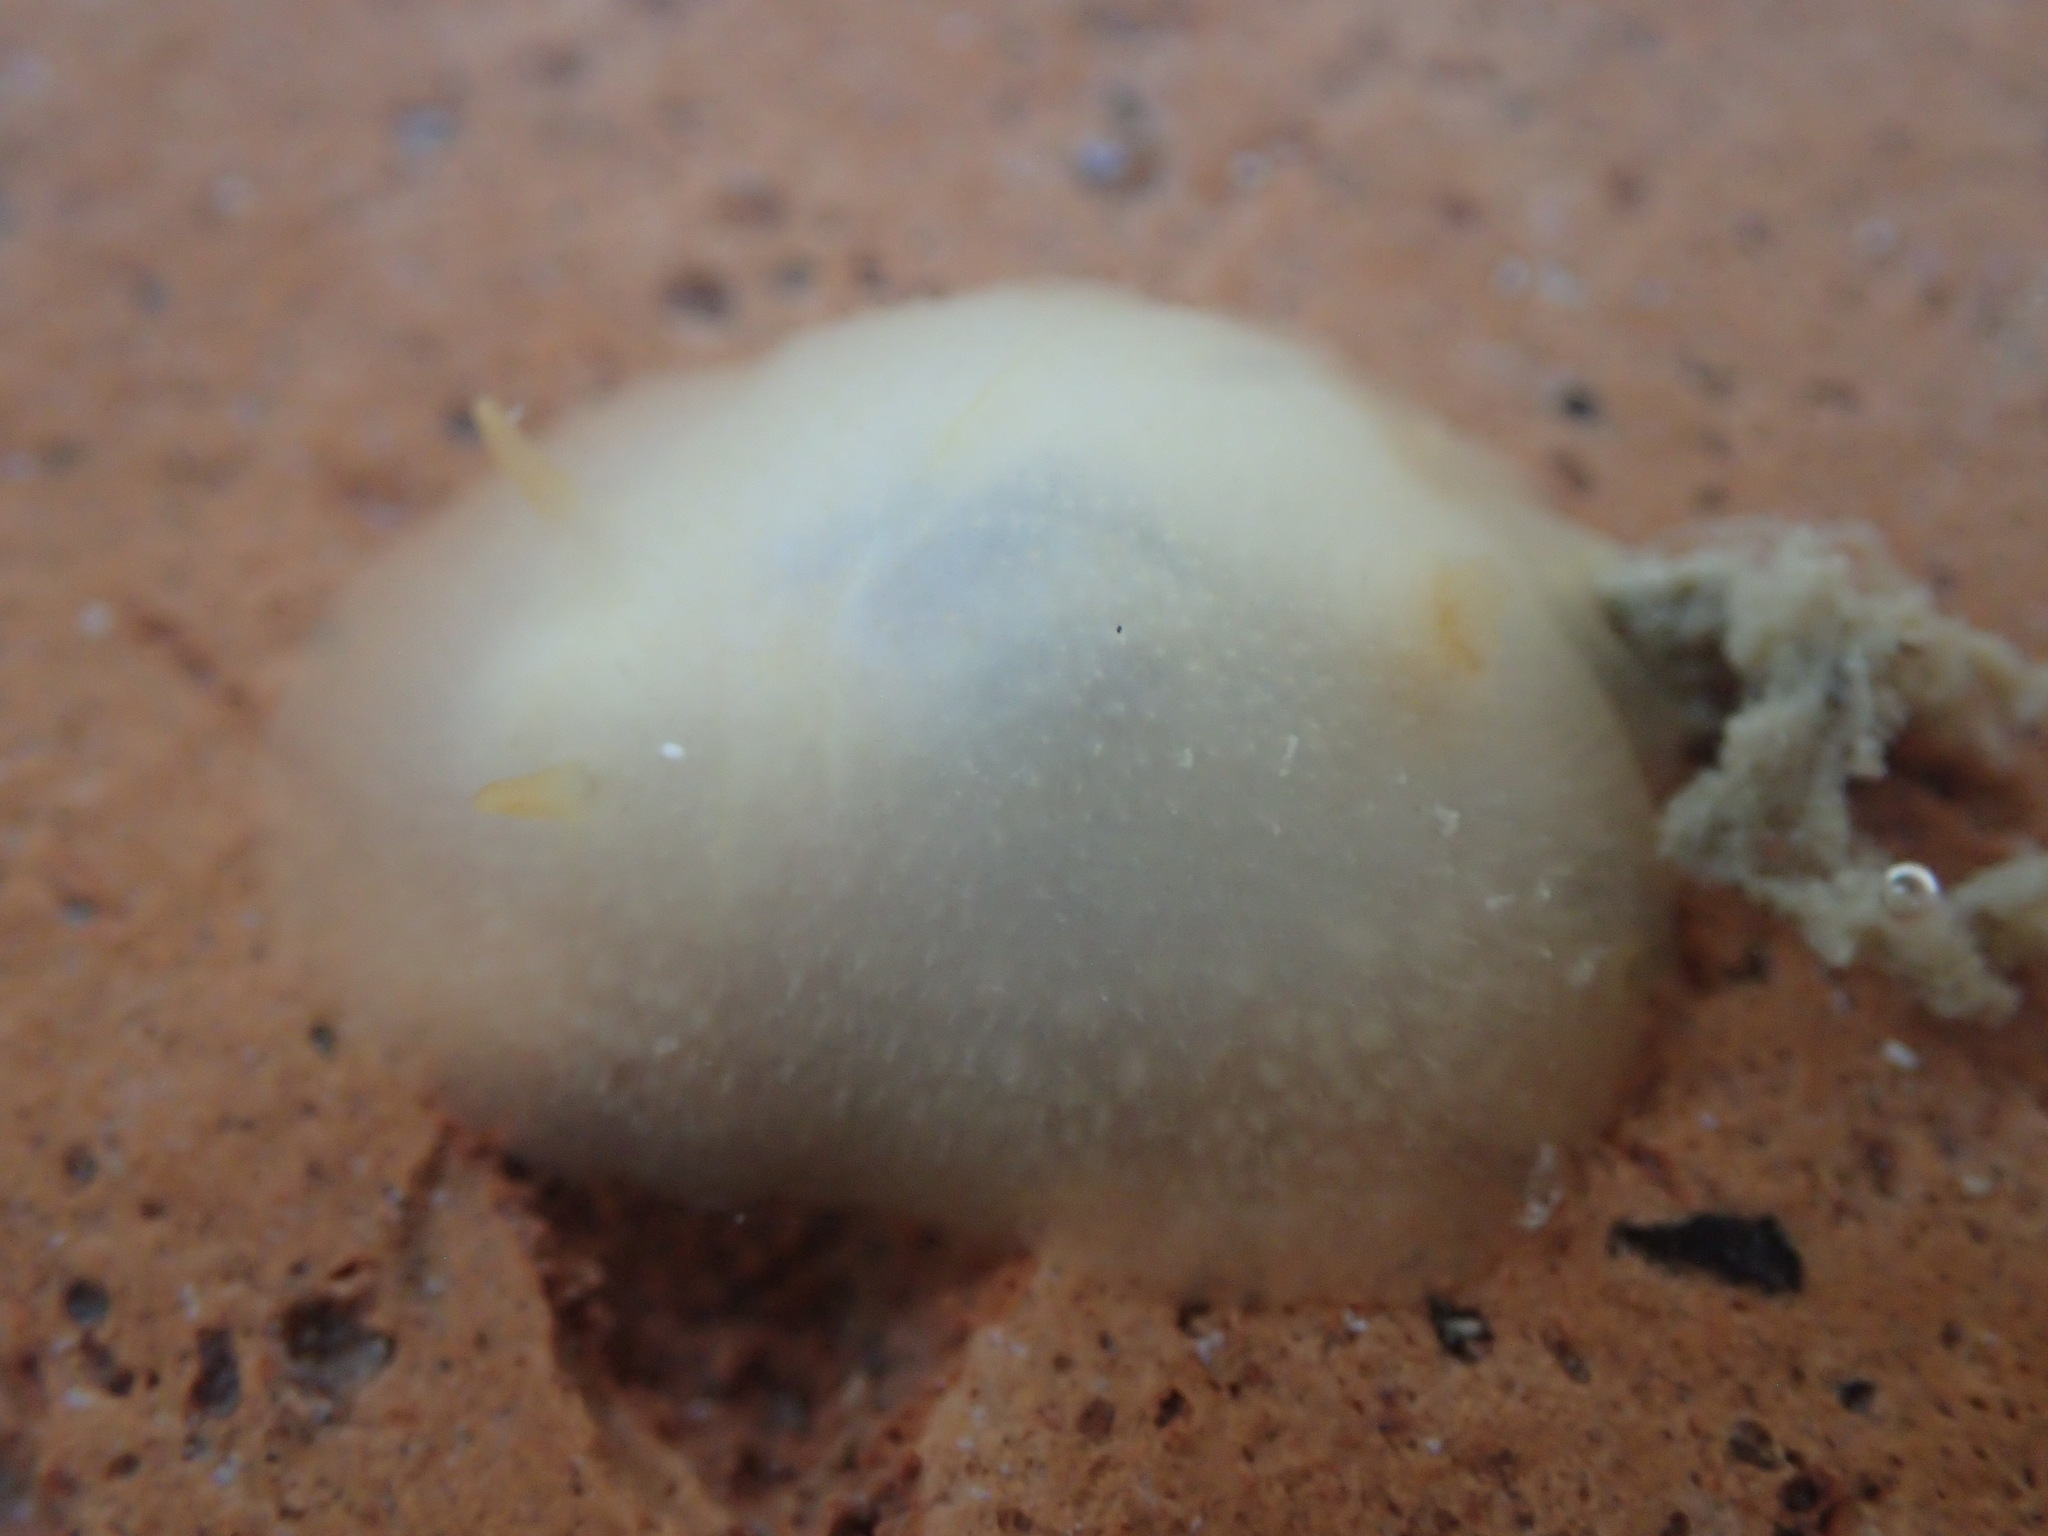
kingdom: Animalia
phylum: Mollusca
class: Gastropoda
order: Nudibranchia
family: Dorididae
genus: Conualevia
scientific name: Conualevia marcusi
